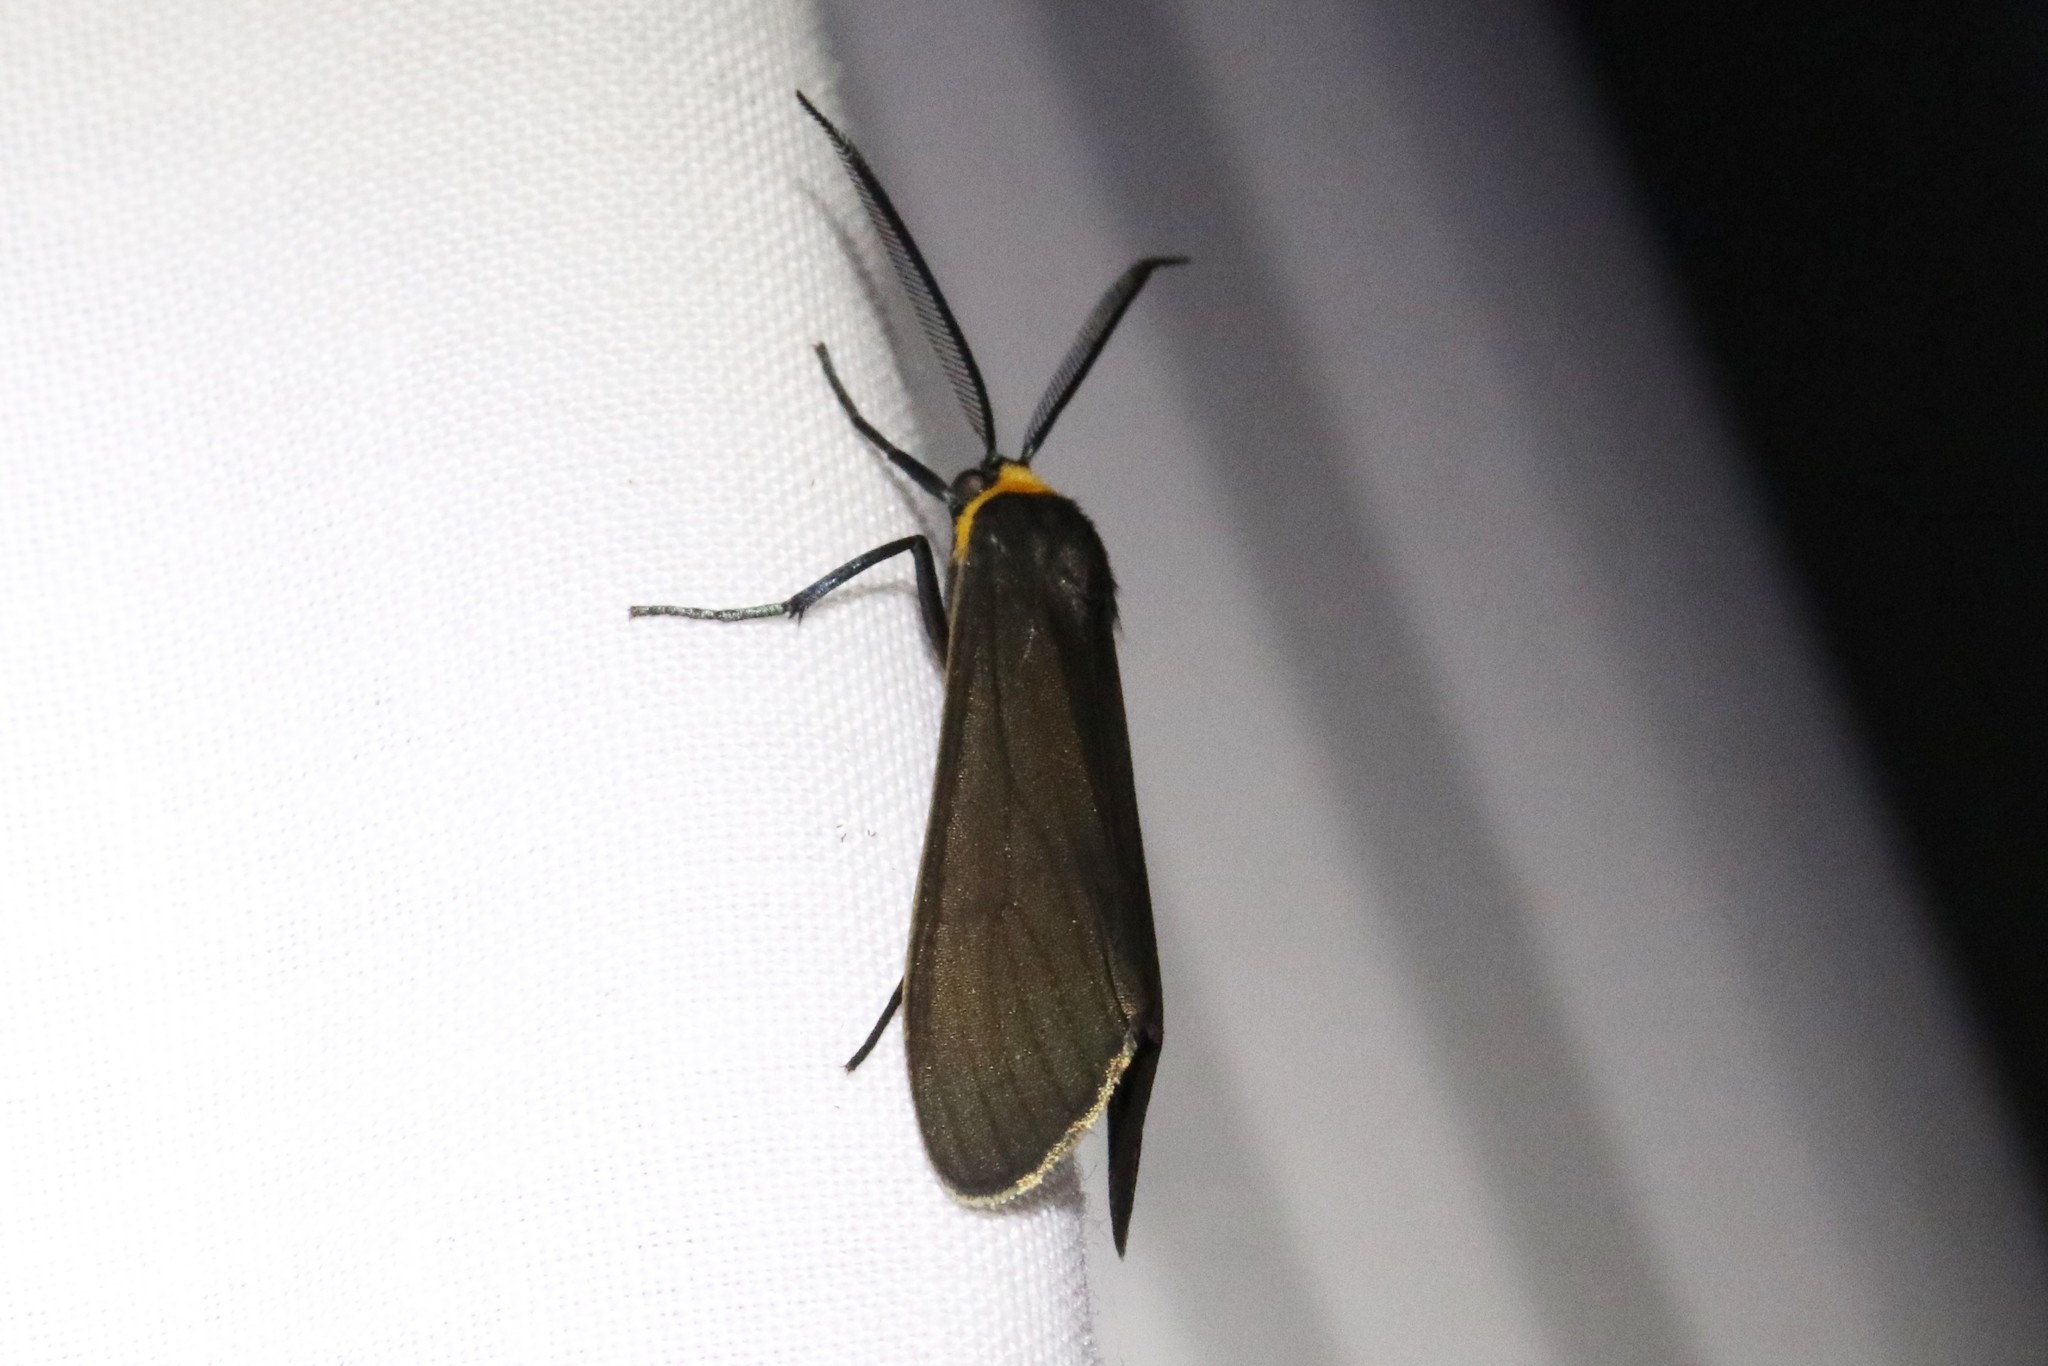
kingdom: Animalia
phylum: Arthropoda
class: Insecta
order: Lepidoptera
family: Erebidae
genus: Cisseps
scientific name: Cisseps fulvicollis
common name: Yellow-collared scape moth
